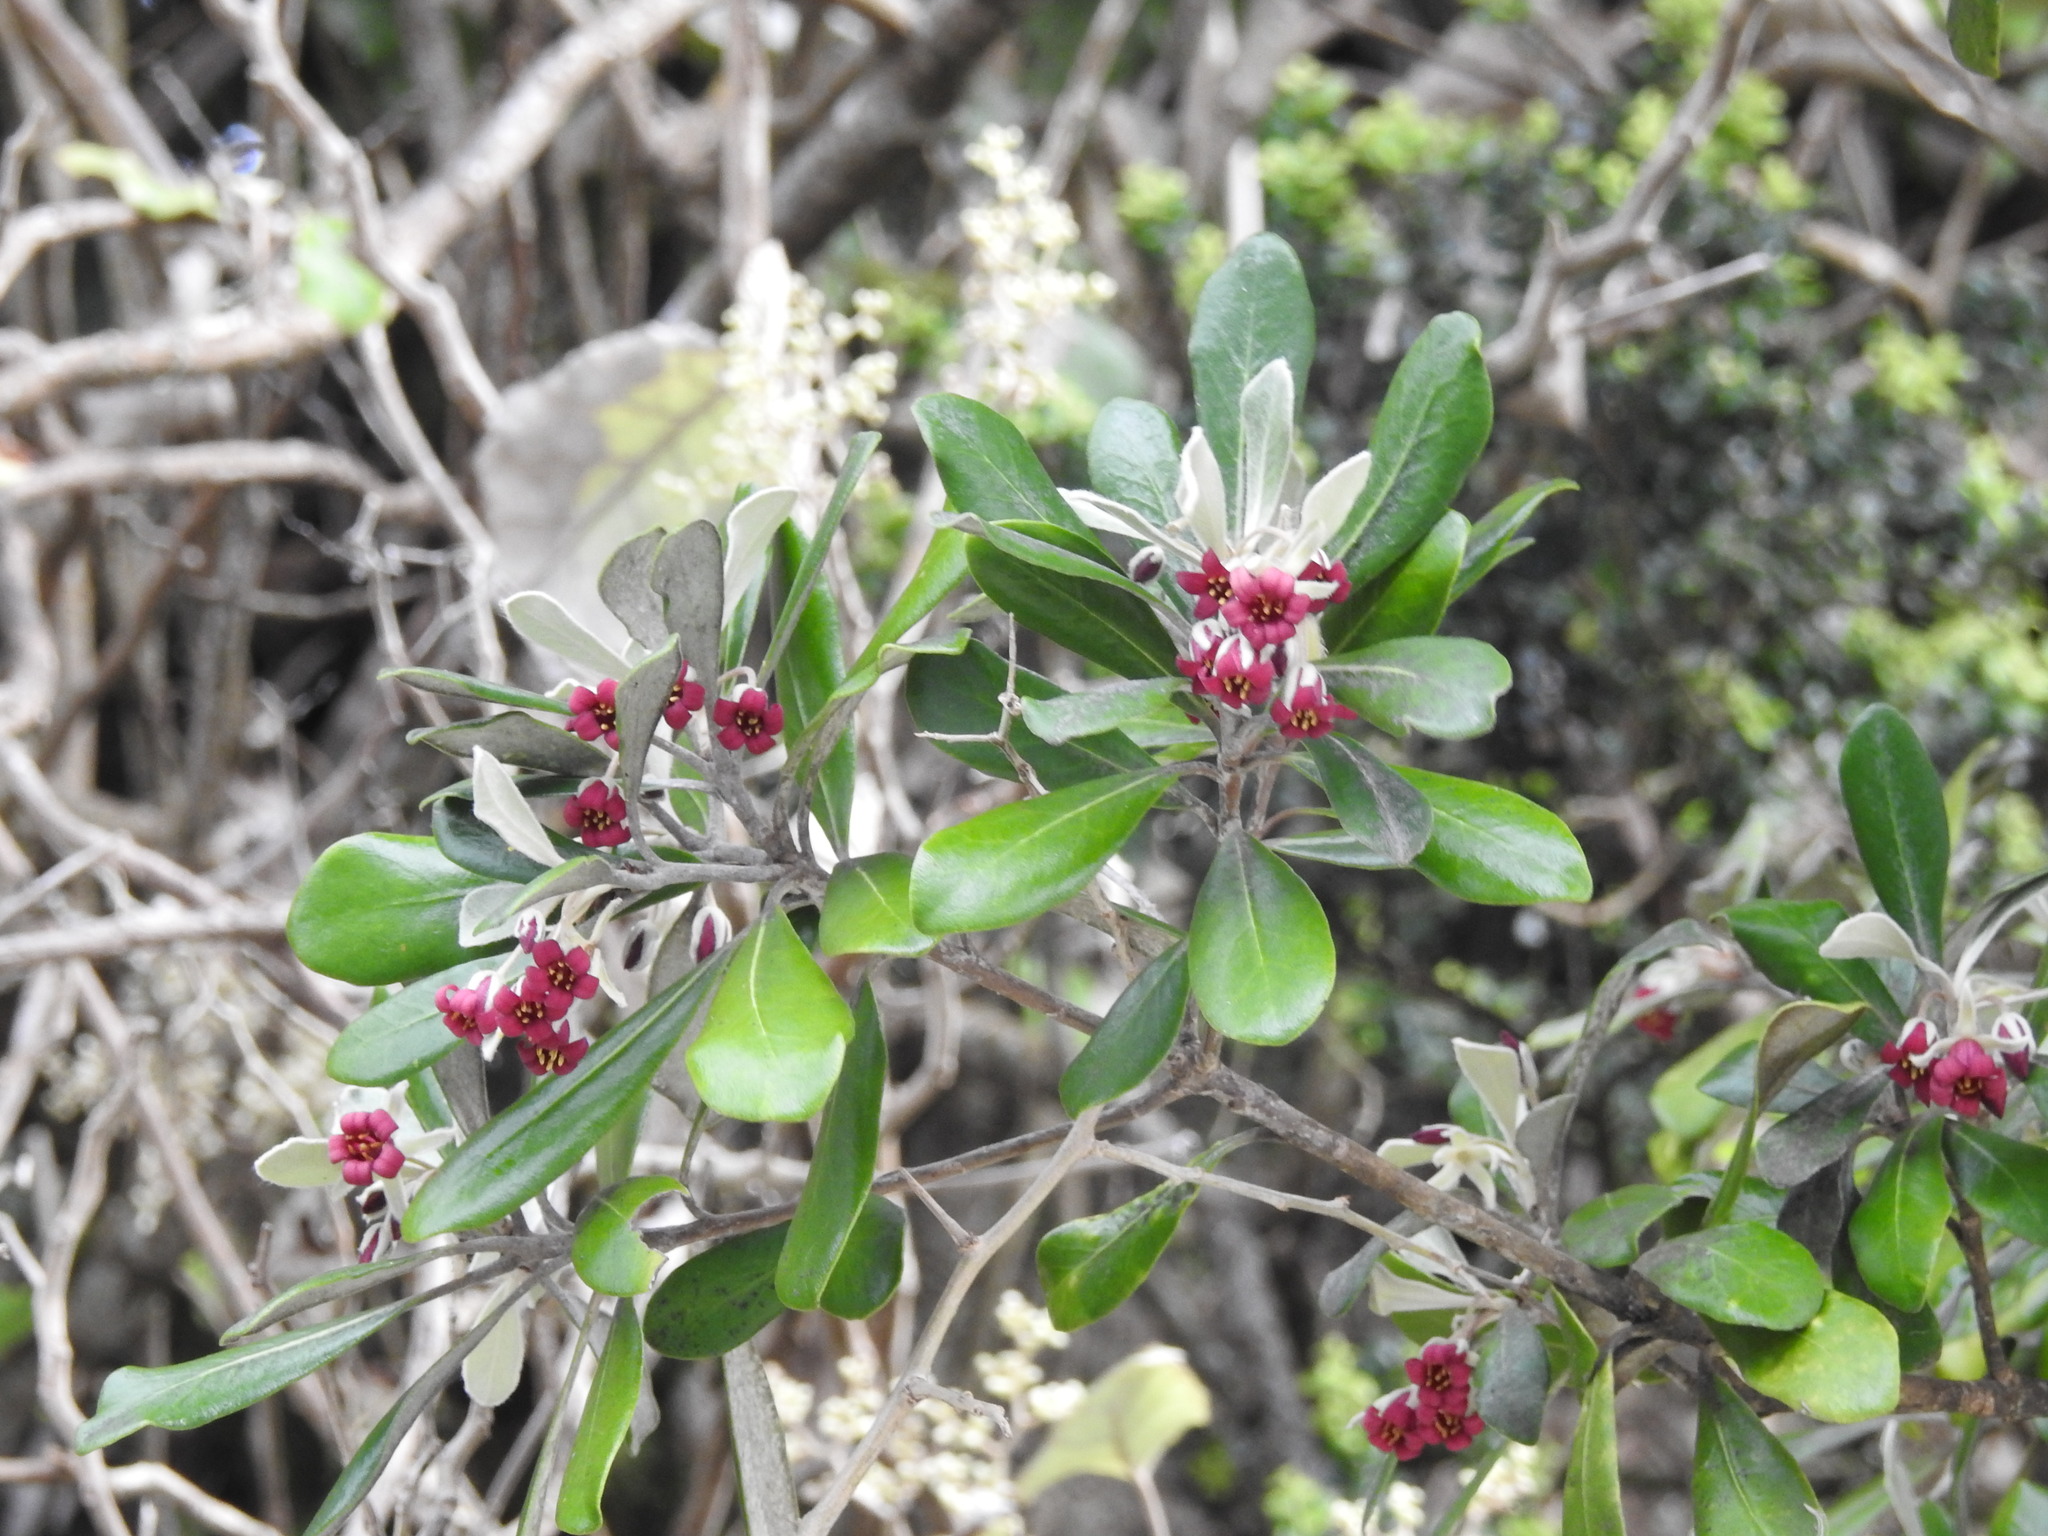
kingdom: Plantae
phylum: Tracheophyta
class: Magnoliopsida
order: Apiales
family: Pittosporaceae
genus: Pittosporum
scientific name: Pittosporum crassifolium
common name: Karo
